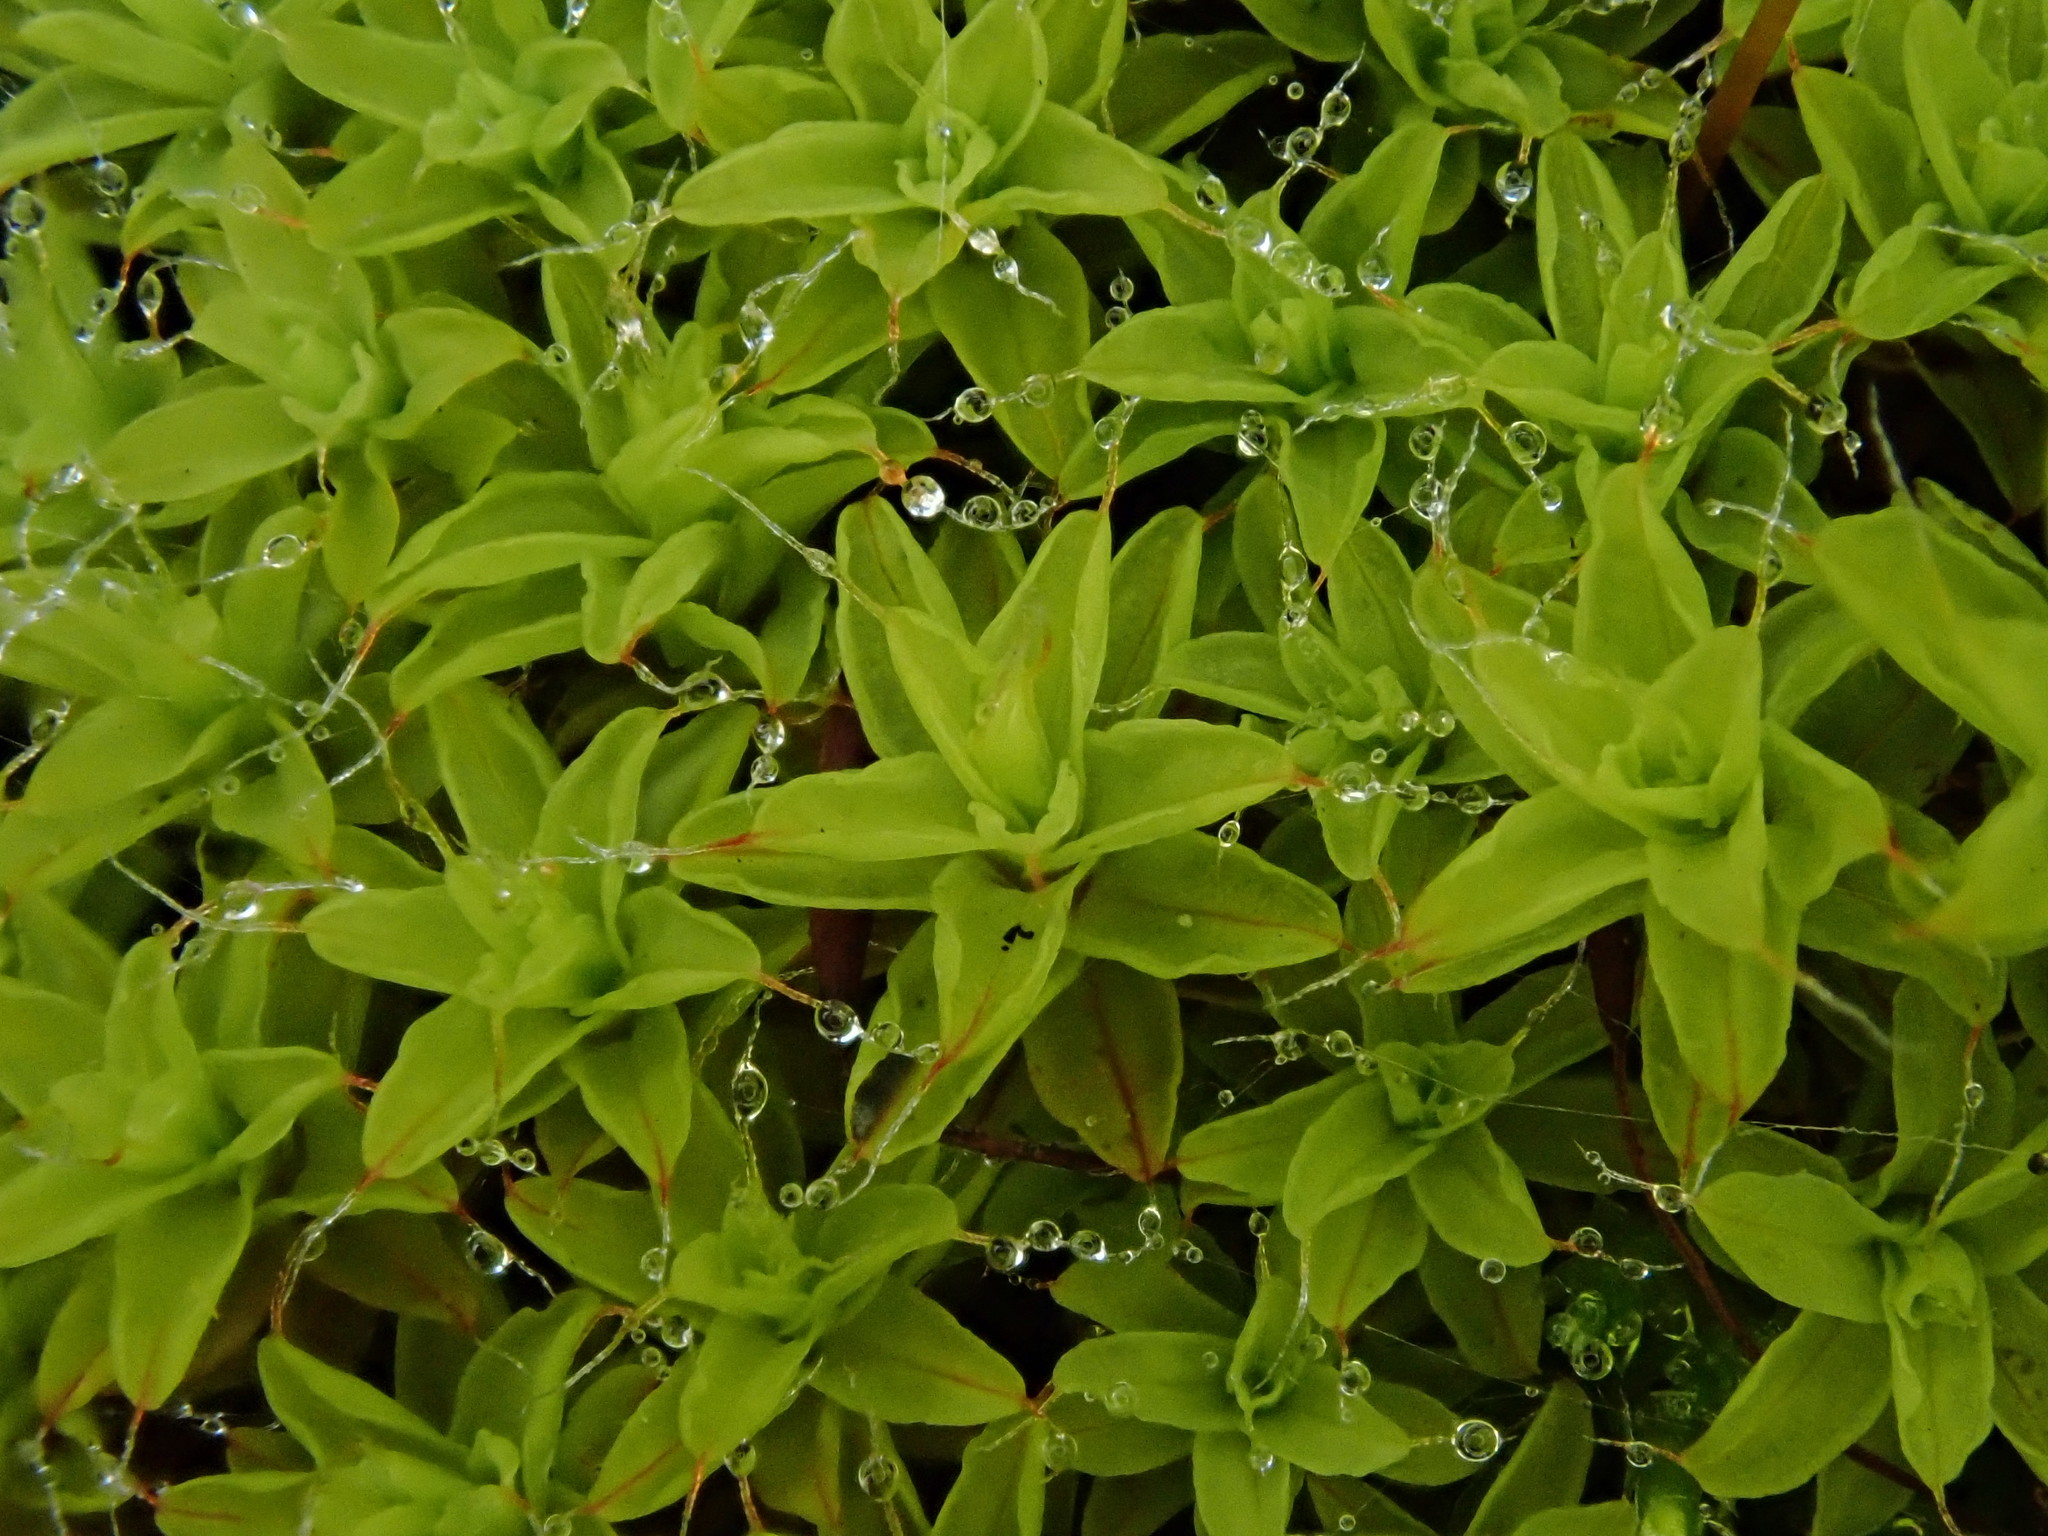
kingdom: Plantae
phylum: Bryophyta
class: Bryopsida
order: Pottiales
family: Pottiaceae
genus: Syntrichia
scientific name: Syntrichia ruralis
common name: Sidewalk screw moss
